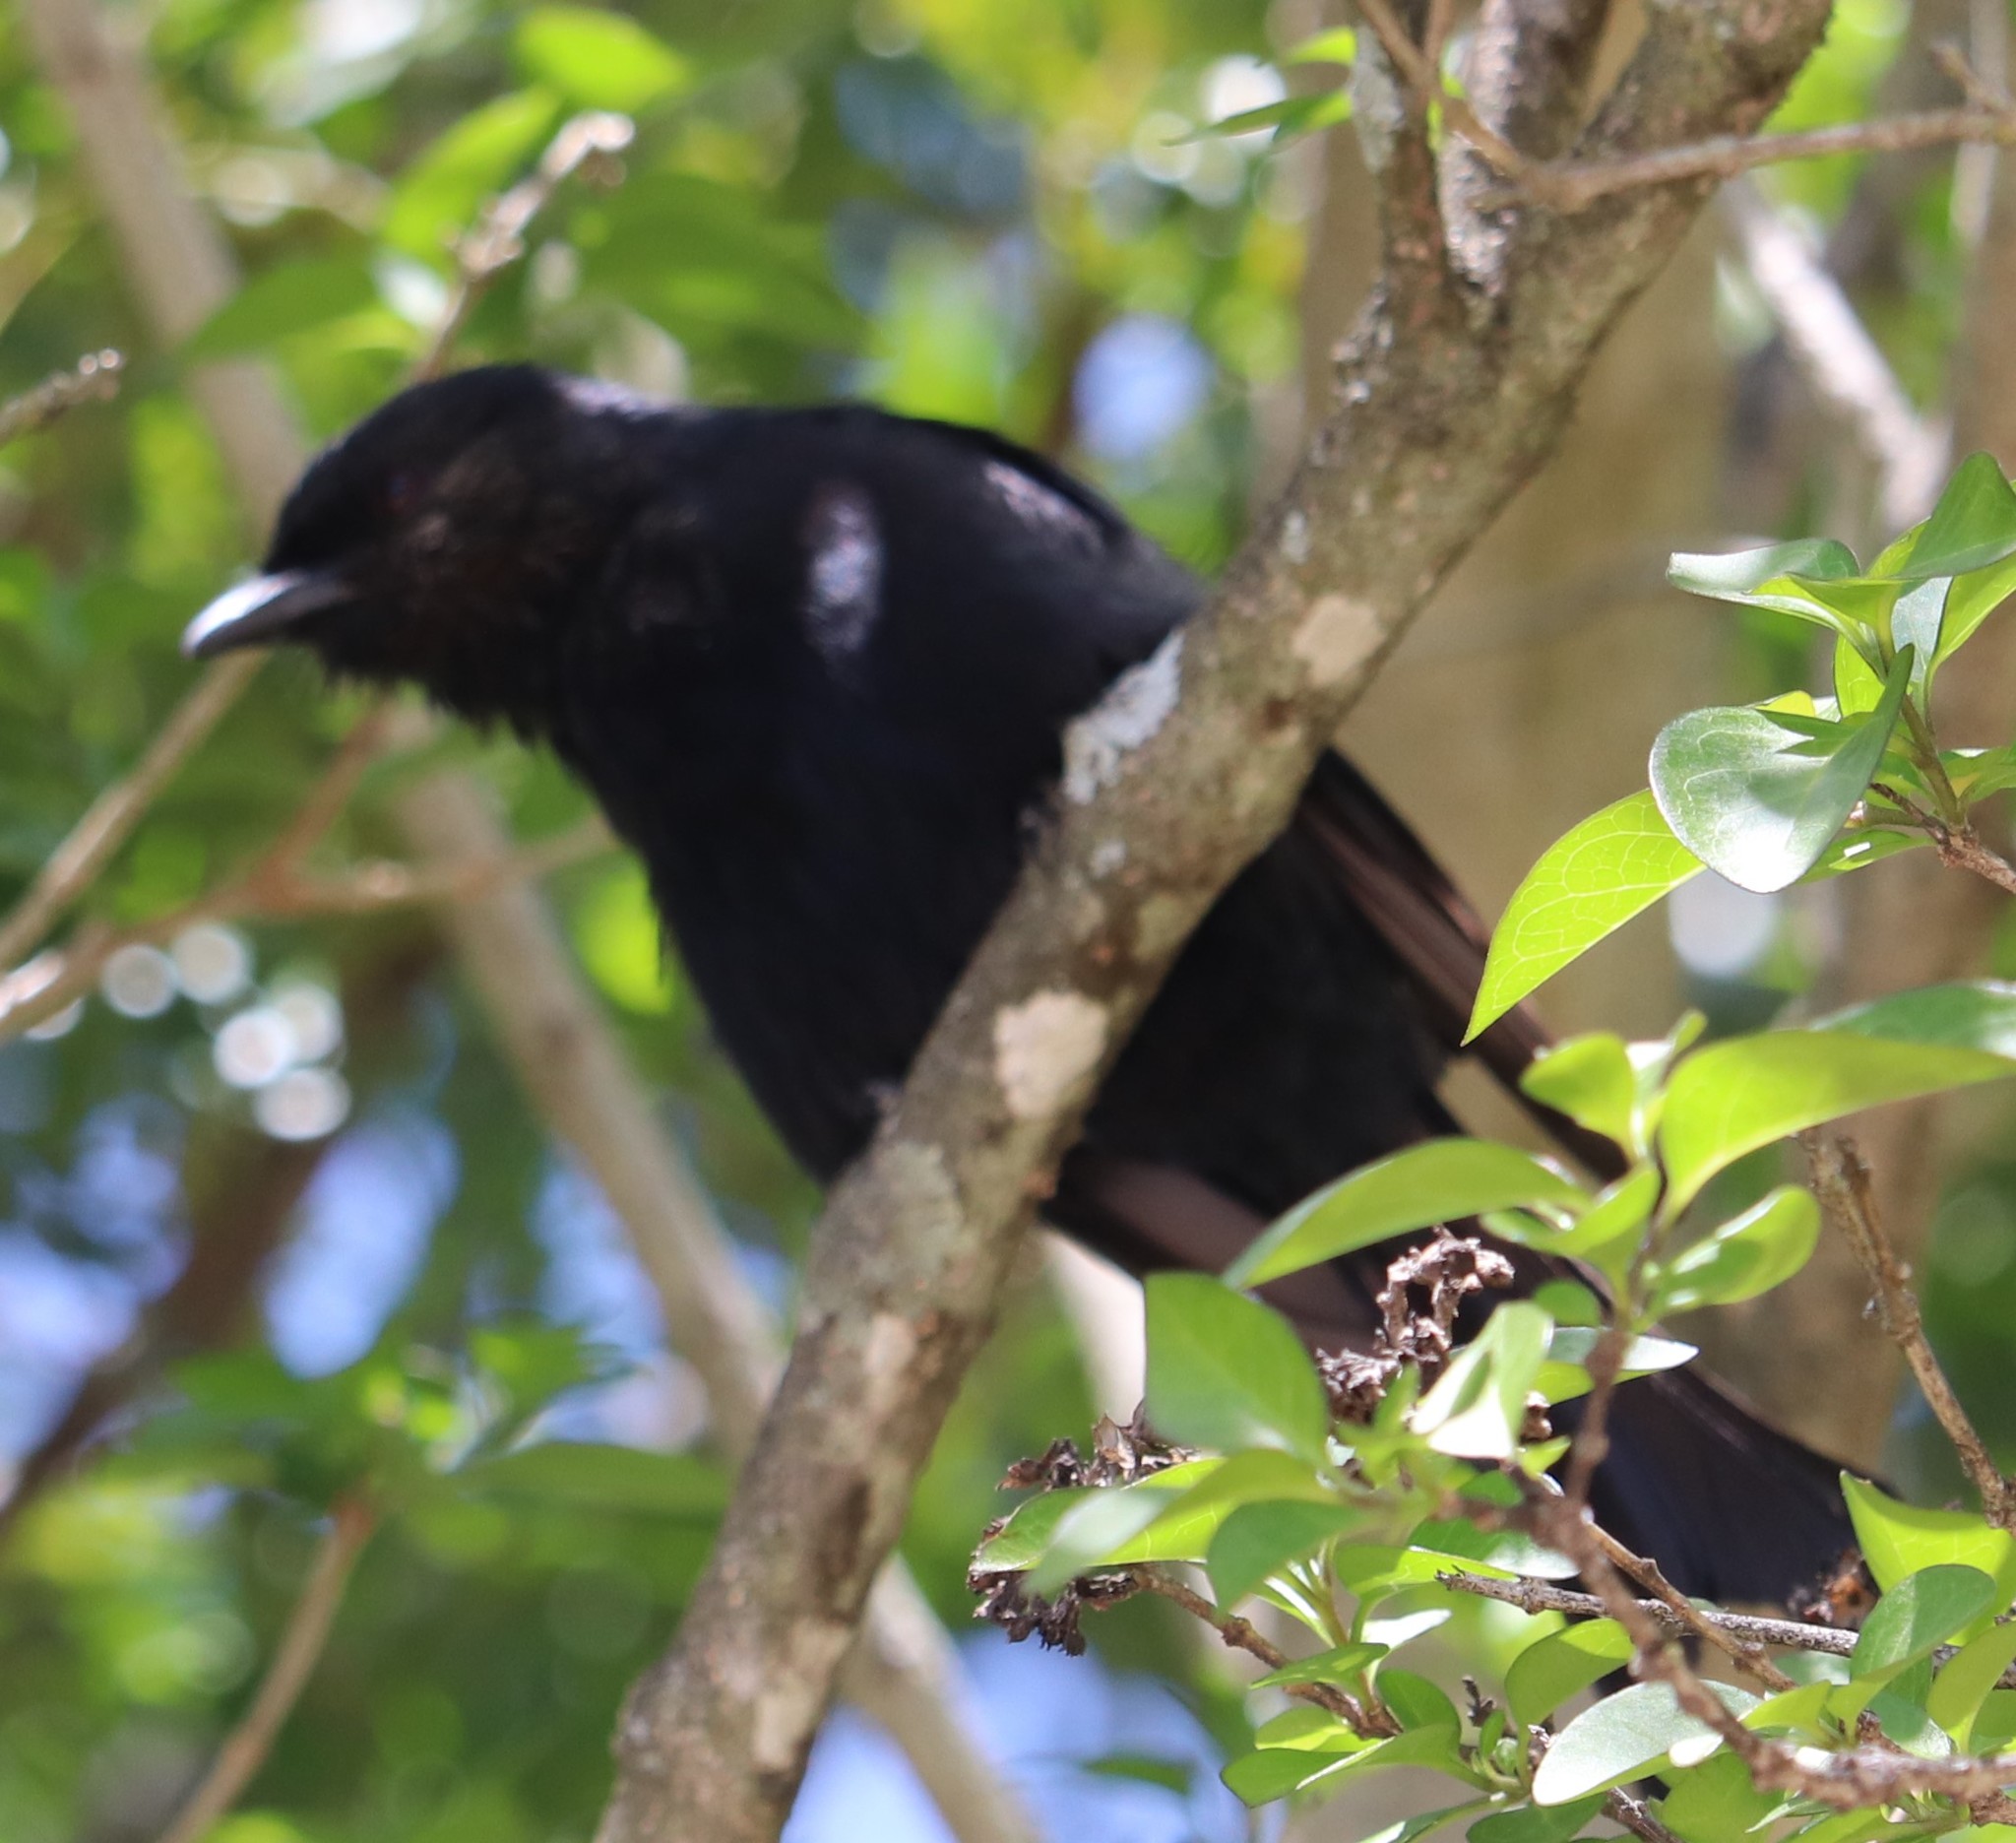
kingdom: Animalia
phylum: Chordata
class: Aves
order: Passeriformes
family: Dicruridae
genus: Dicrurus
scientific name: Dicrurus adsimilis
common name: Fork-tailed drongo
